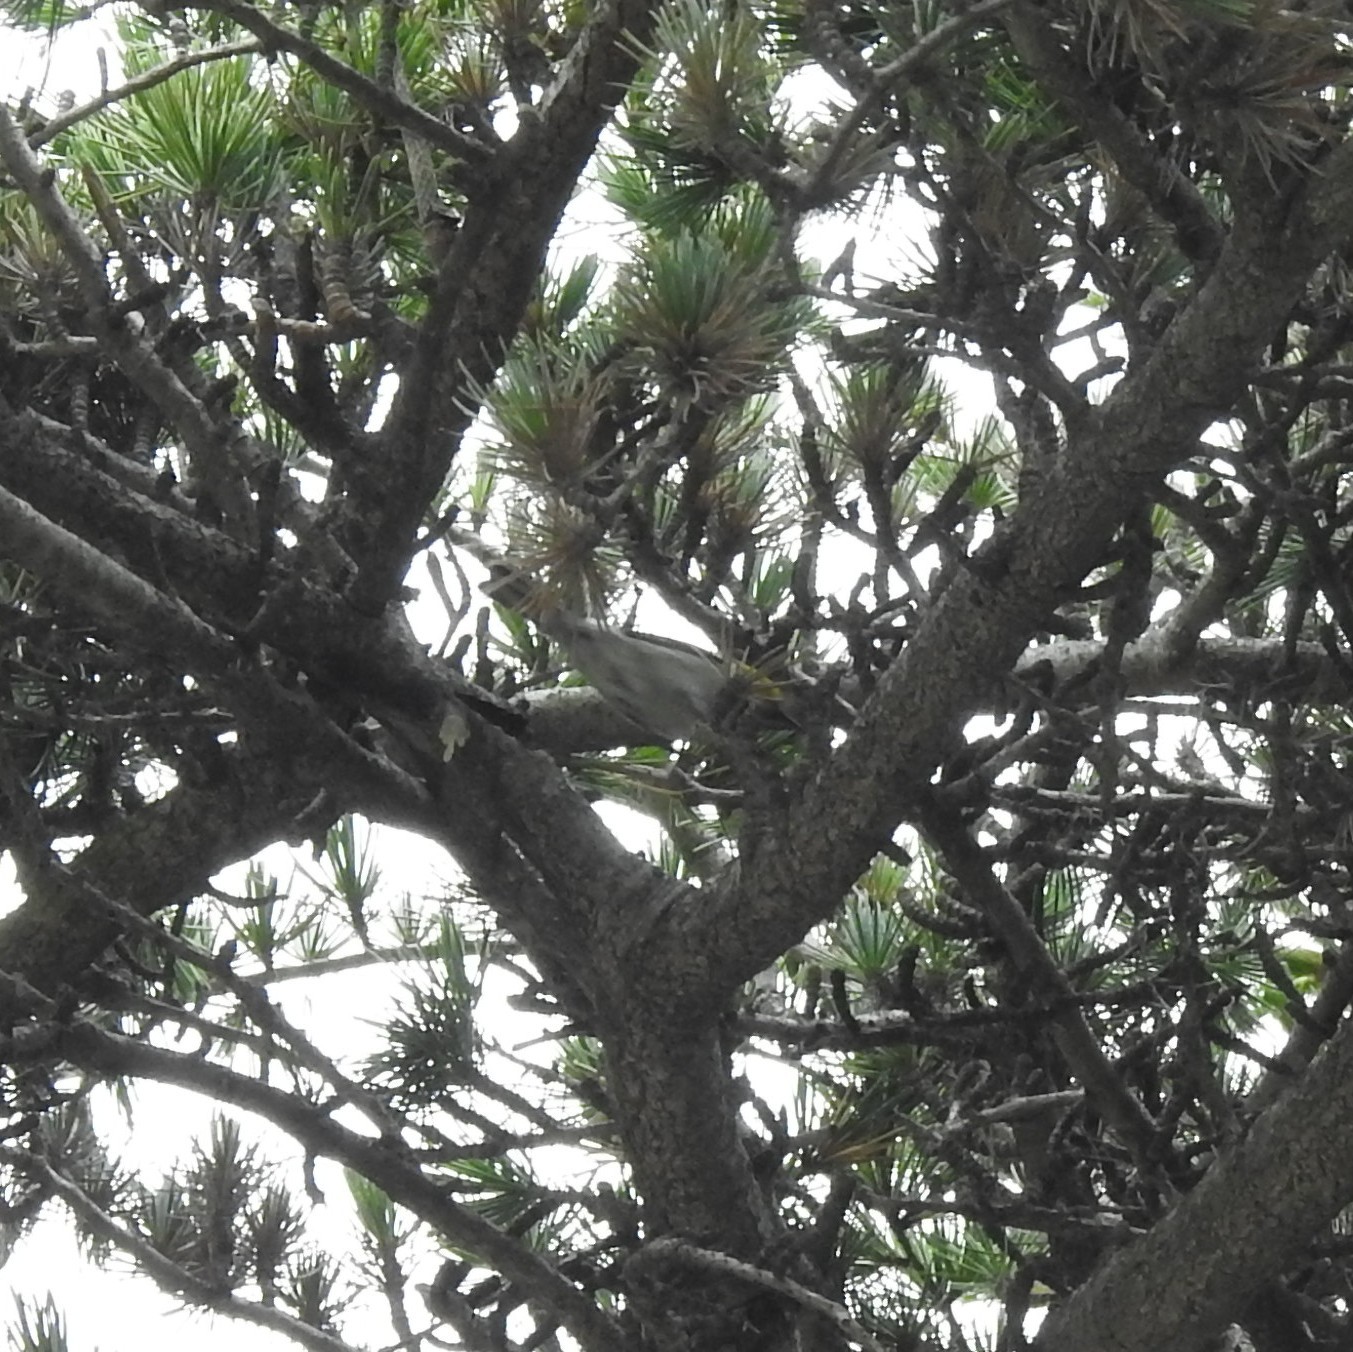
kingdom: Animalia
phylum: Chordata
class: Aves
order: Passeriformes
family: Parulidae
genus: Setophaga
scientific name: Setophaga occidentalis
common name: Hermit warbler
